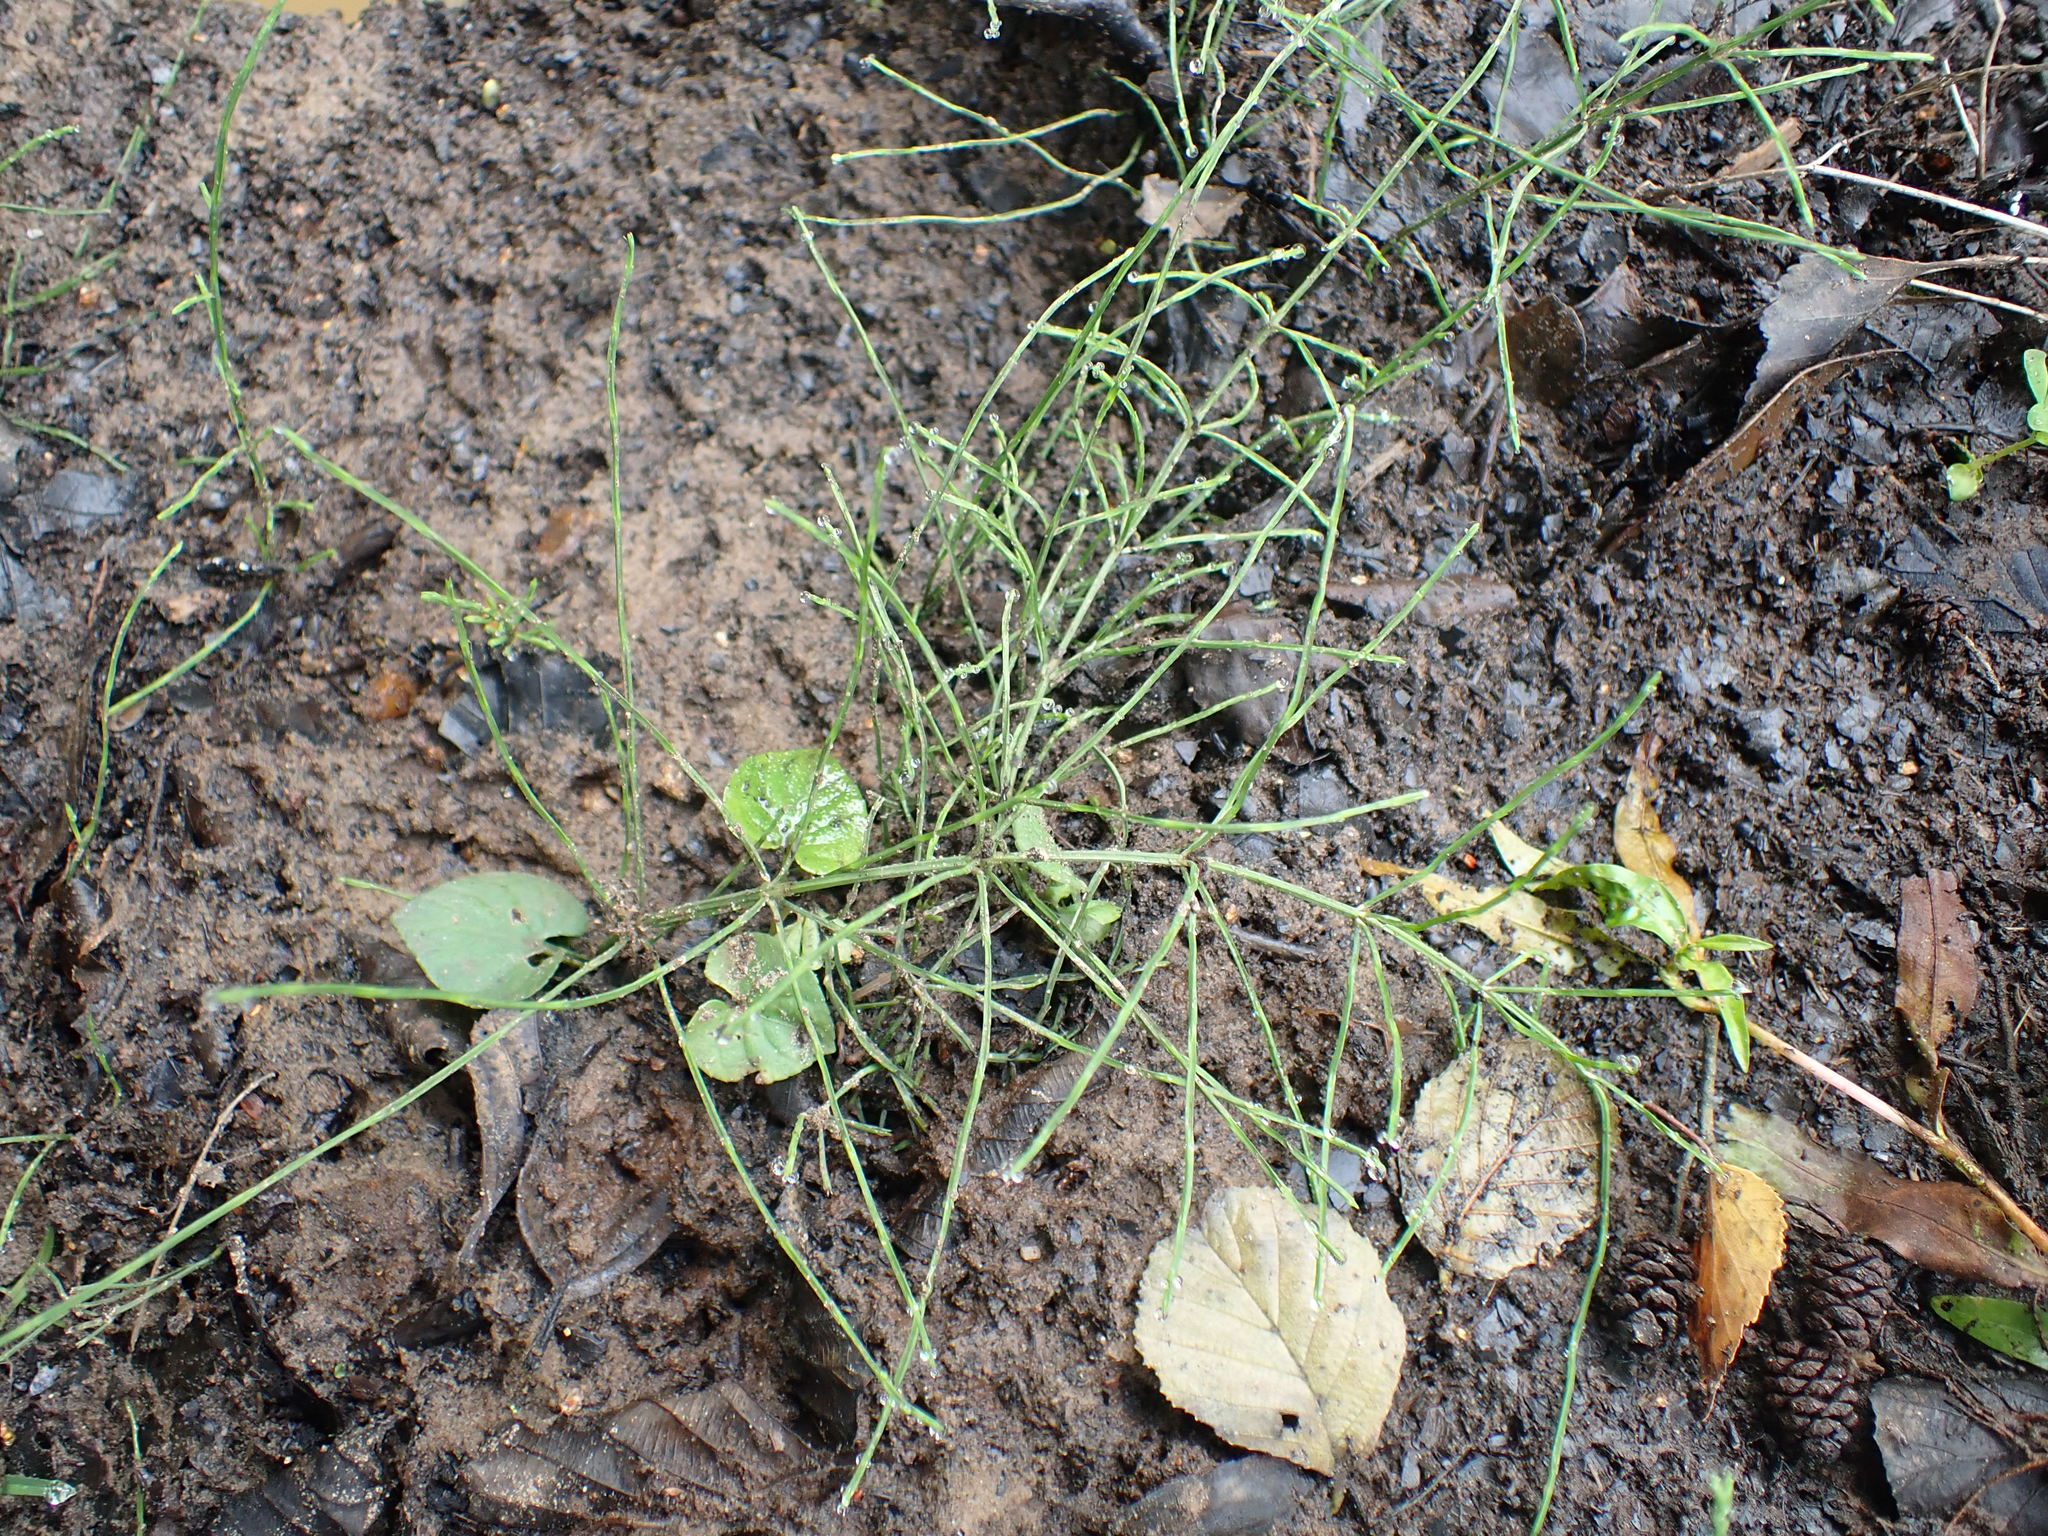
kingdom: Plantae
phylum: Tracheophyta
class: Polypodiopsida
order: Equisetales
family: Equisetaceae
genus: Equisetum
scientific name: Equisetum arvense
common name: Field horsetail
